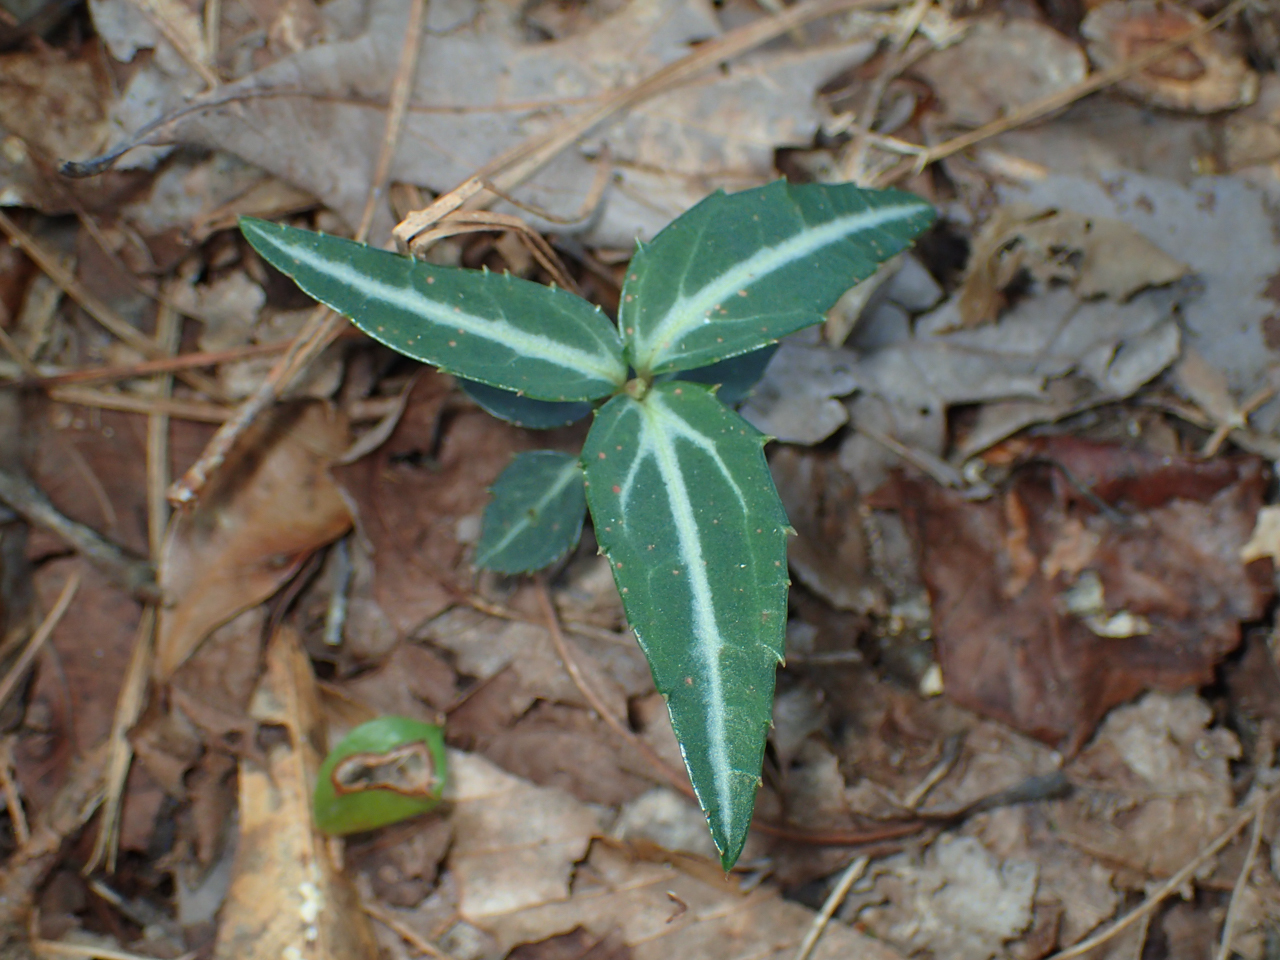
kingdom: Plantae
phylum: Tracheophyta
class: Magnoliopsida
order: Ericales
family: Ericaceae
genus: Chimaphila
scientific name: Chimaphila maculata
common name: Spotted pipsissewa
